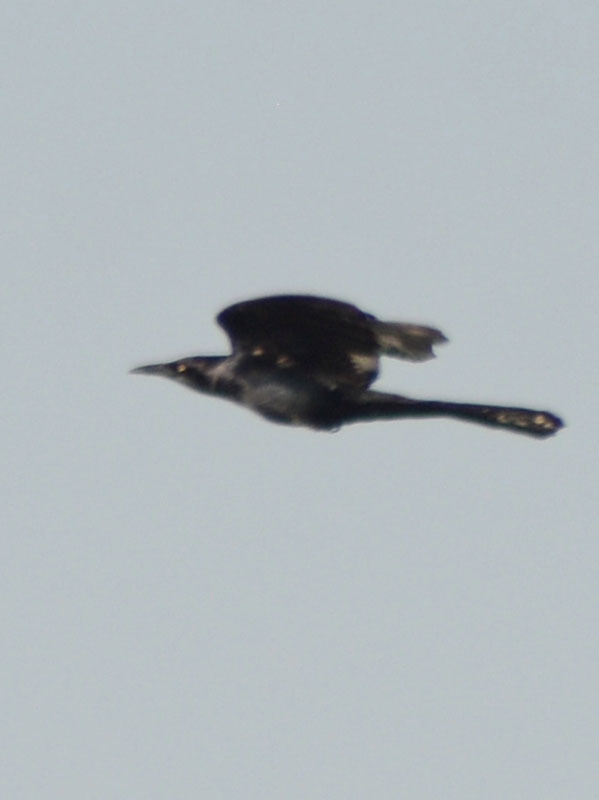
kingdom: Animalia
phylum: Chordata
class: Aves
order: Passeriformes
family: Icteridae
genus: Quiscalus
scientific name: Quiscalus mexicanus
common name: Great-tailed grackle
